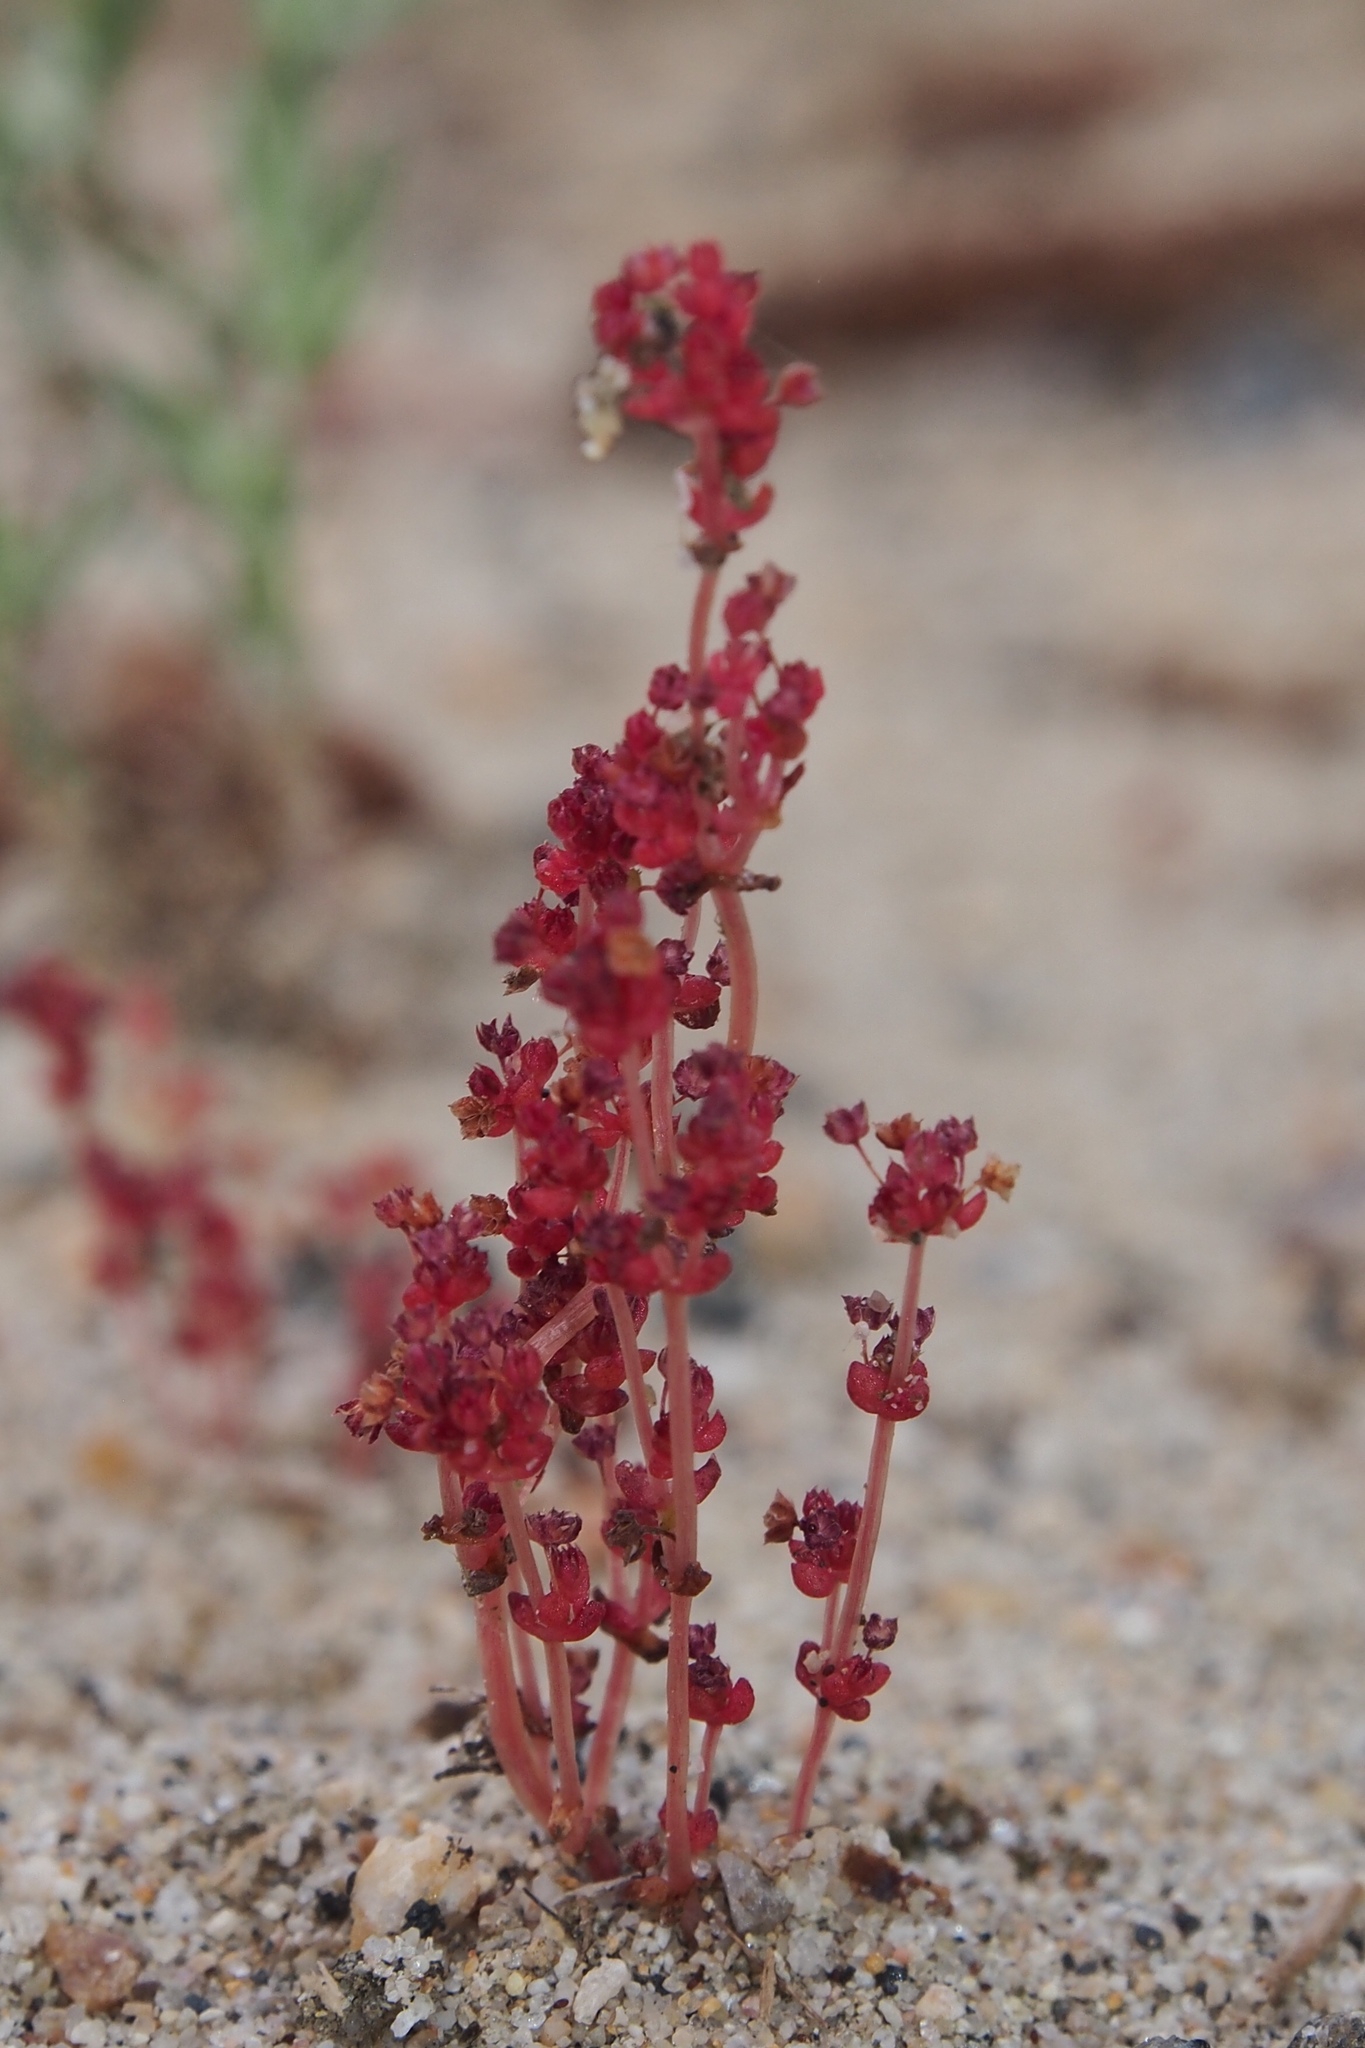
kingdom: Plantae
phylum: Tracheophyta
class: Magnoliopsida
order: Saxifragales
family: Crassulaceae
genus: Crassula
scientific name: Crassula connata
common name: Erect pygmyweed
